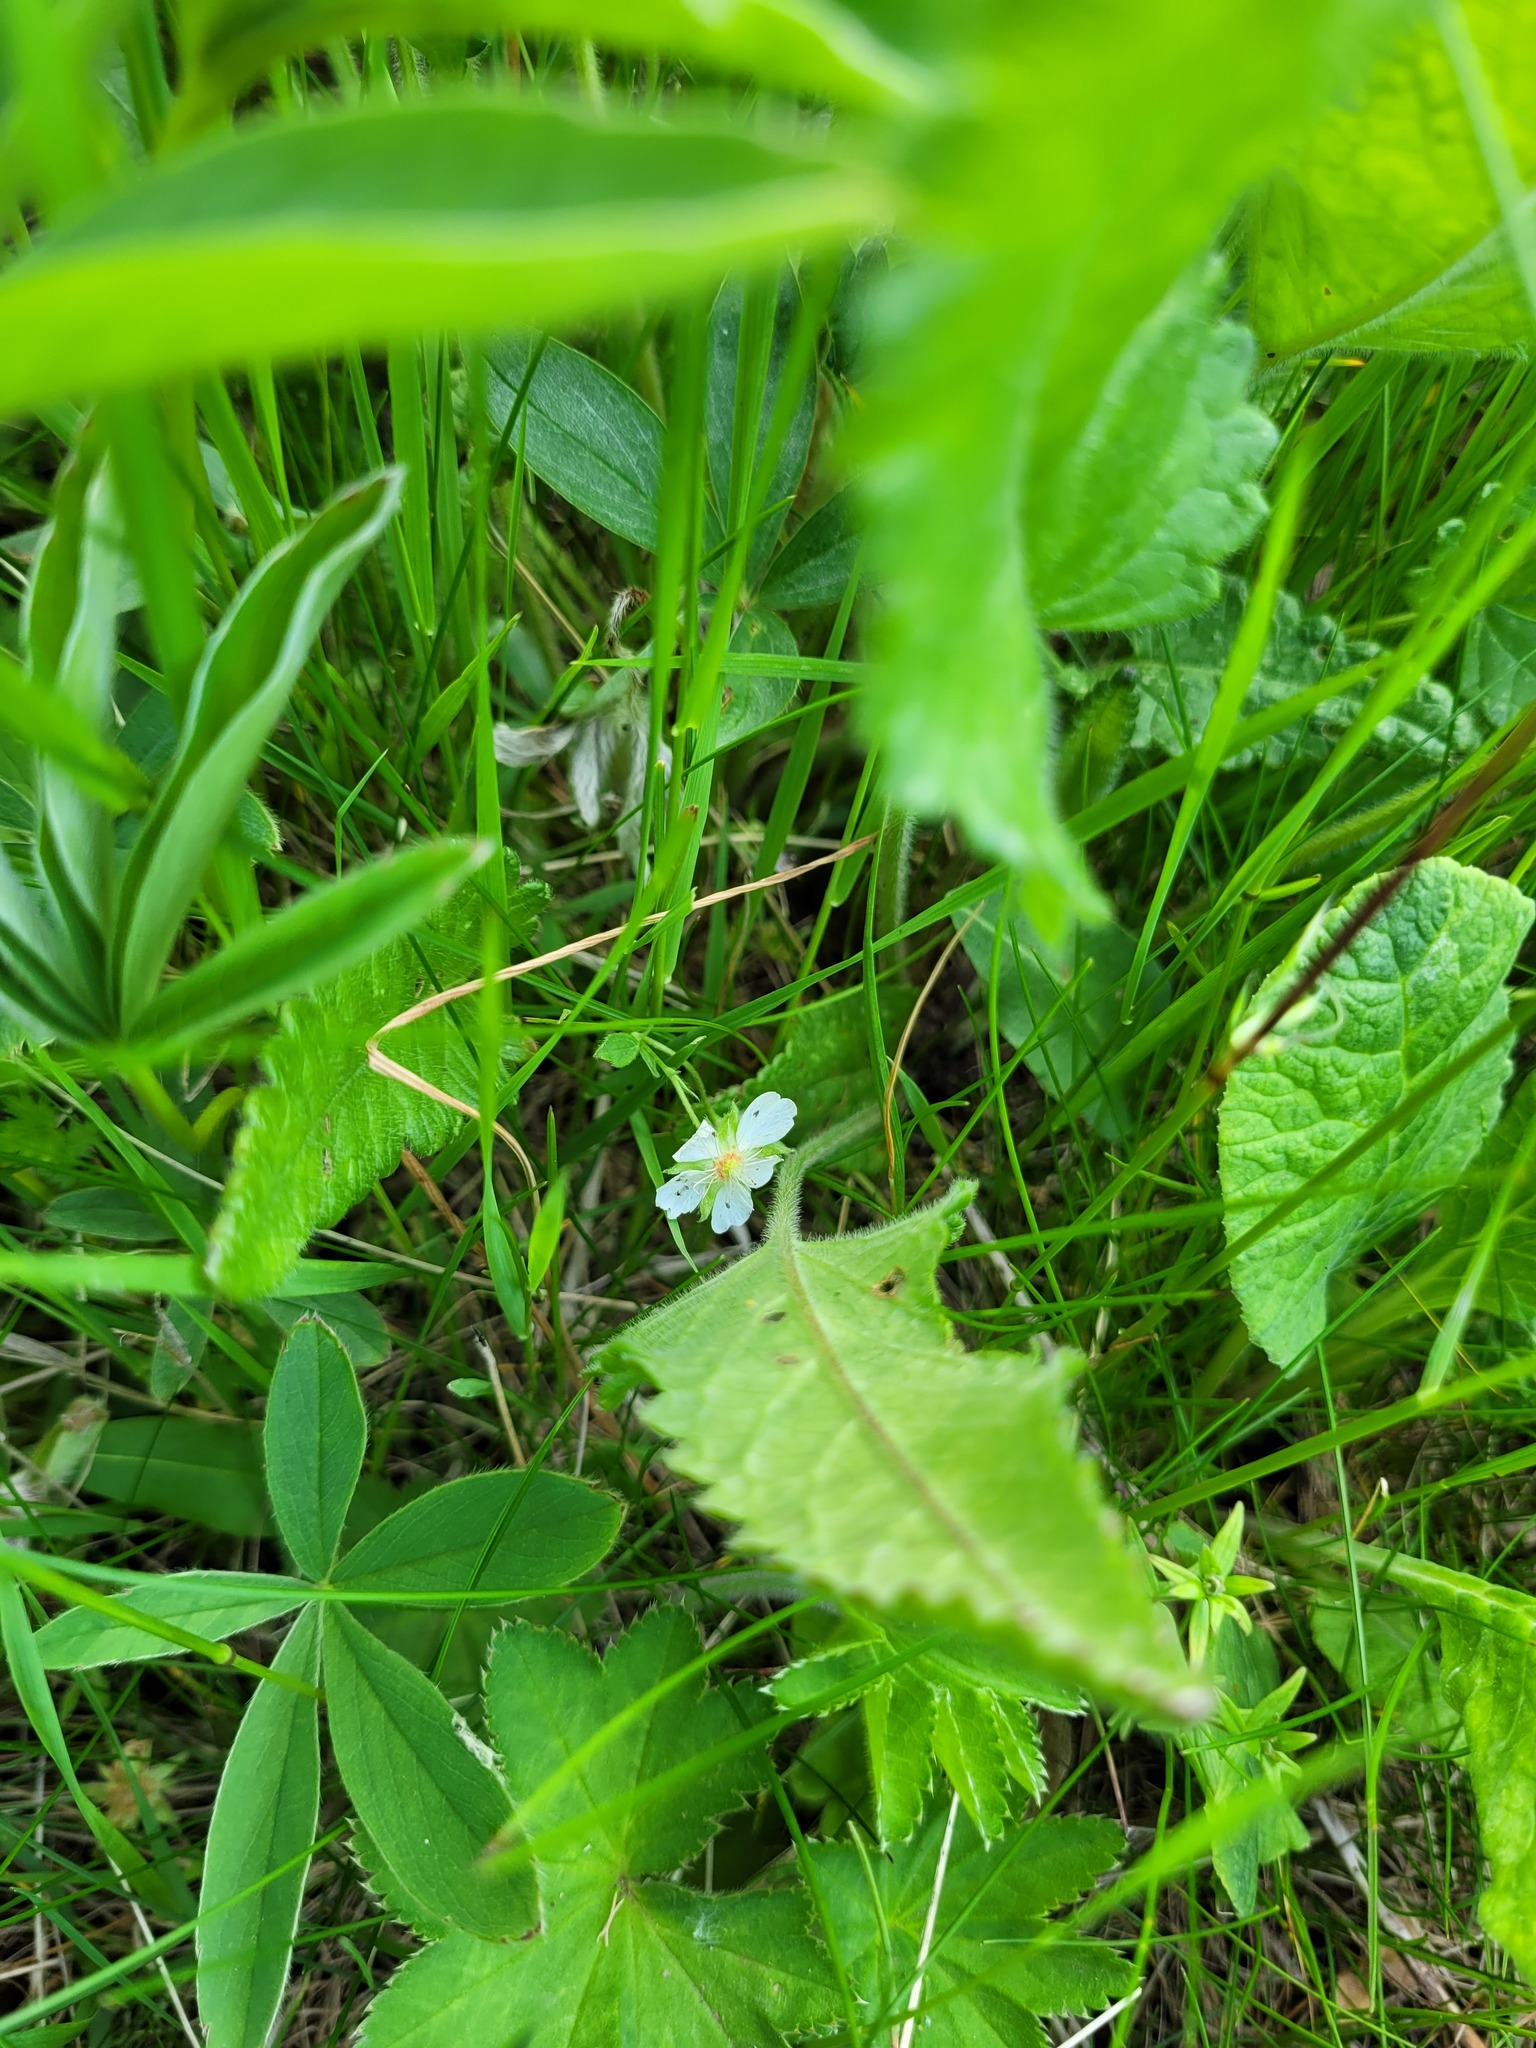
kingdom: Plantae
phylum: Tracheophyta
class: Magnoliopsida
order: Rosales
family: Rosaceae
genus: Potentilla
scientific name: Potentilla alba
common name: White cinquefoil
